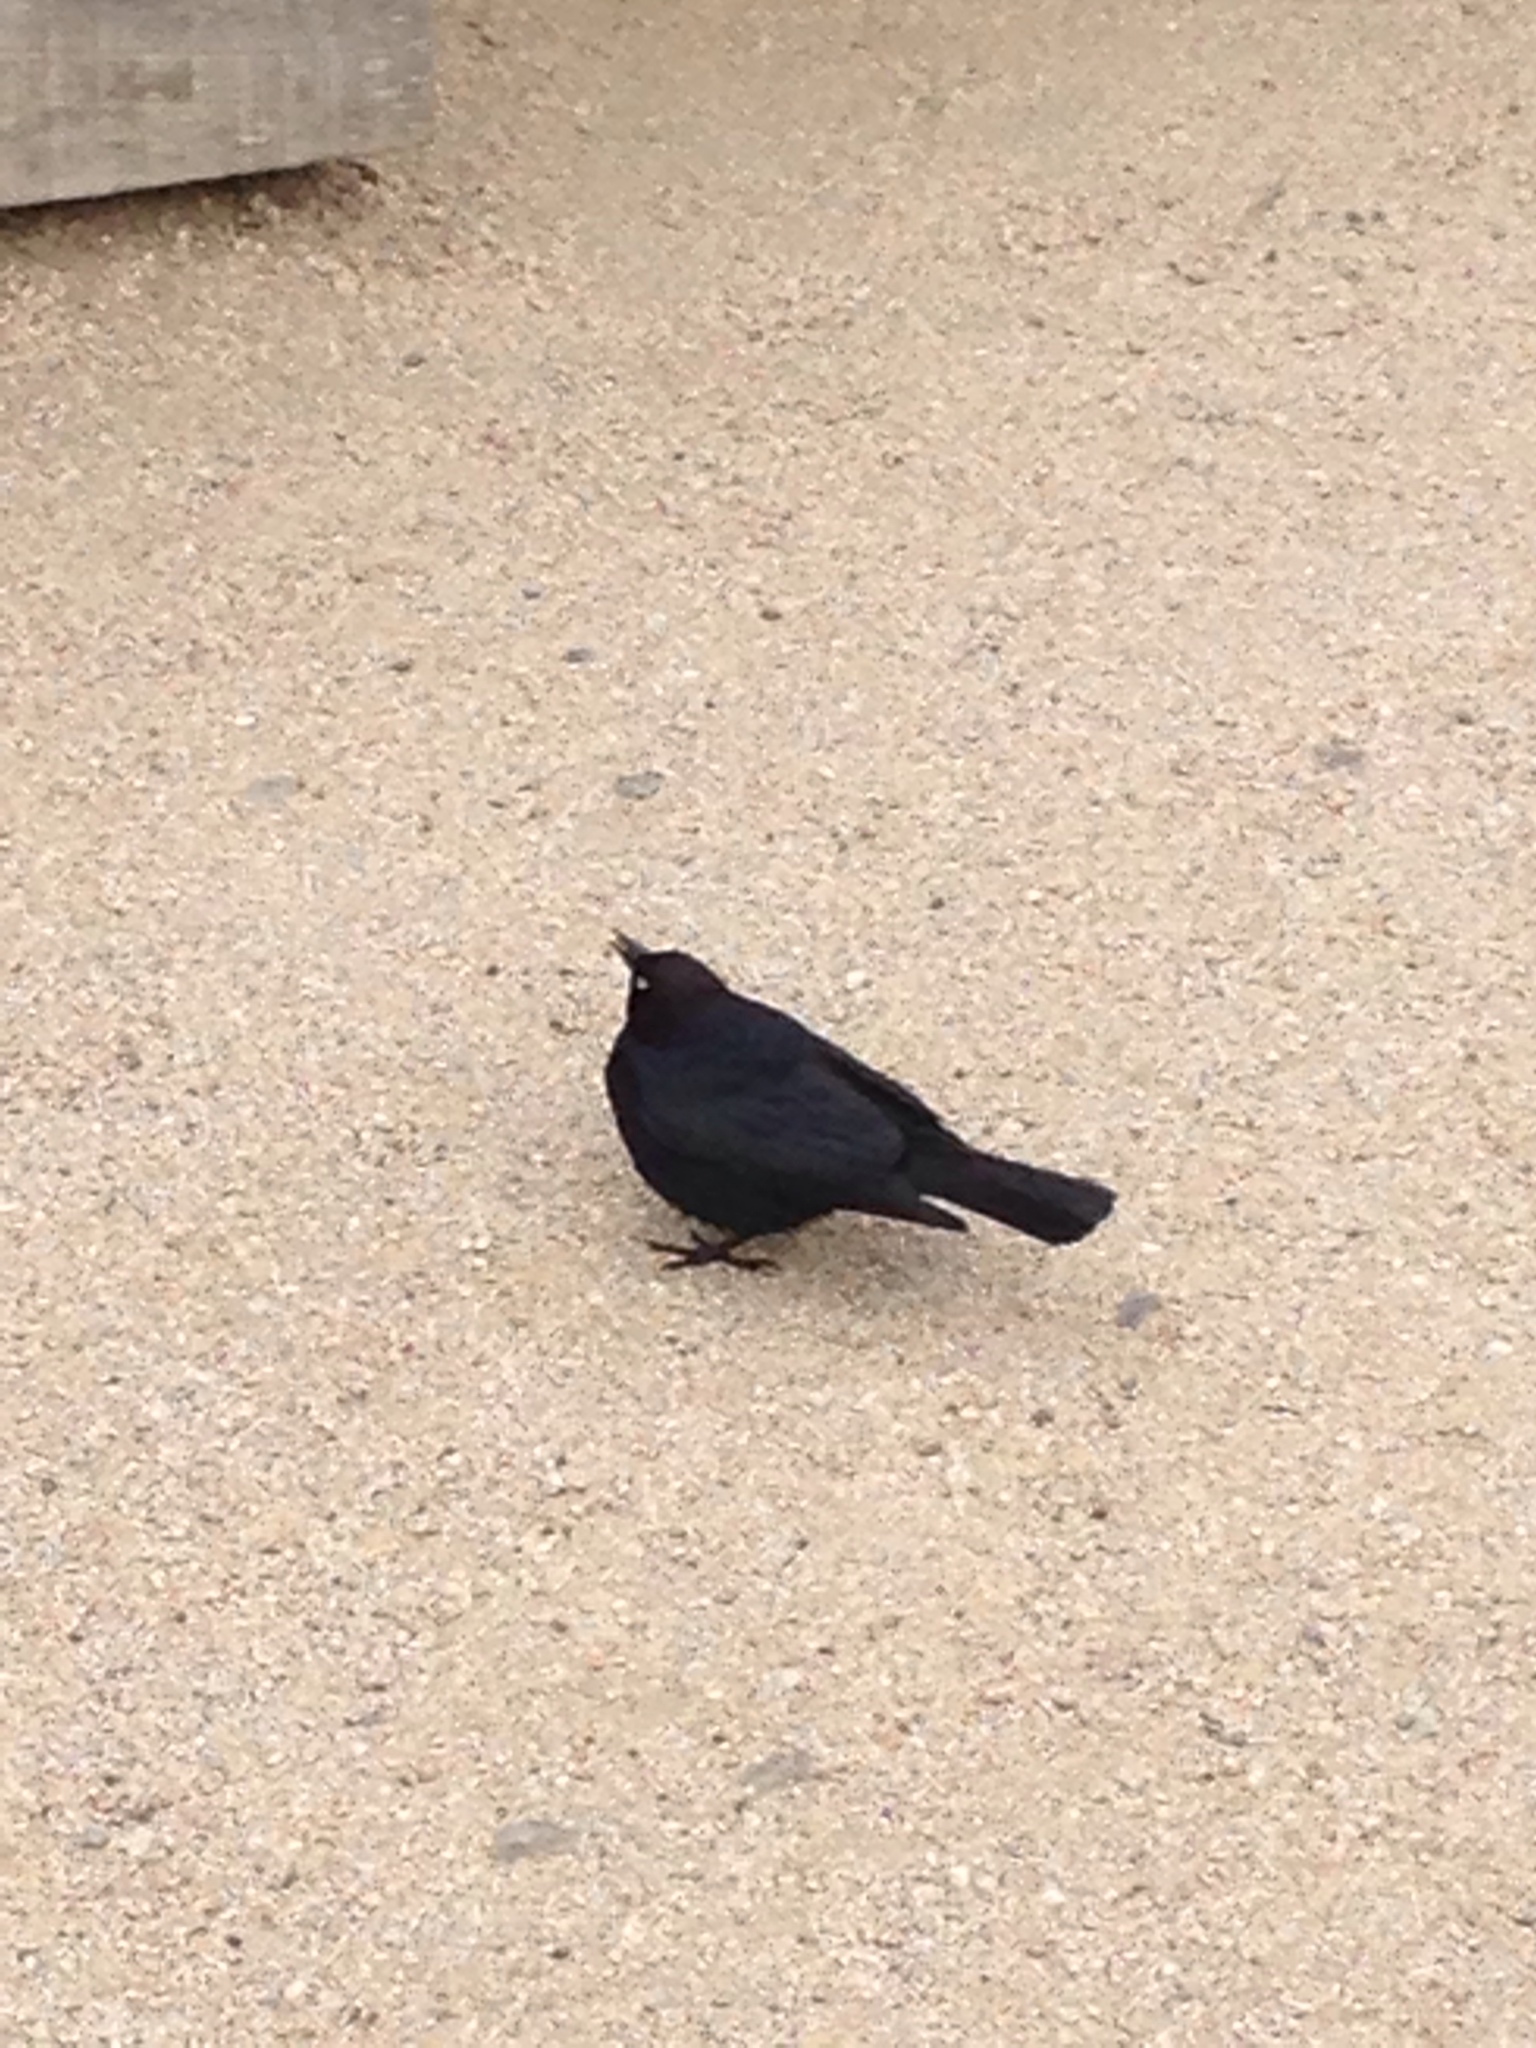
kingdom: Animalia
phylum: Chordata
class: Aves
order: Passeriformes
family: Icteridae
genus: Euphagus
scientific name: Euphagus cyanocephalus
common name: Brewer's blackbird
